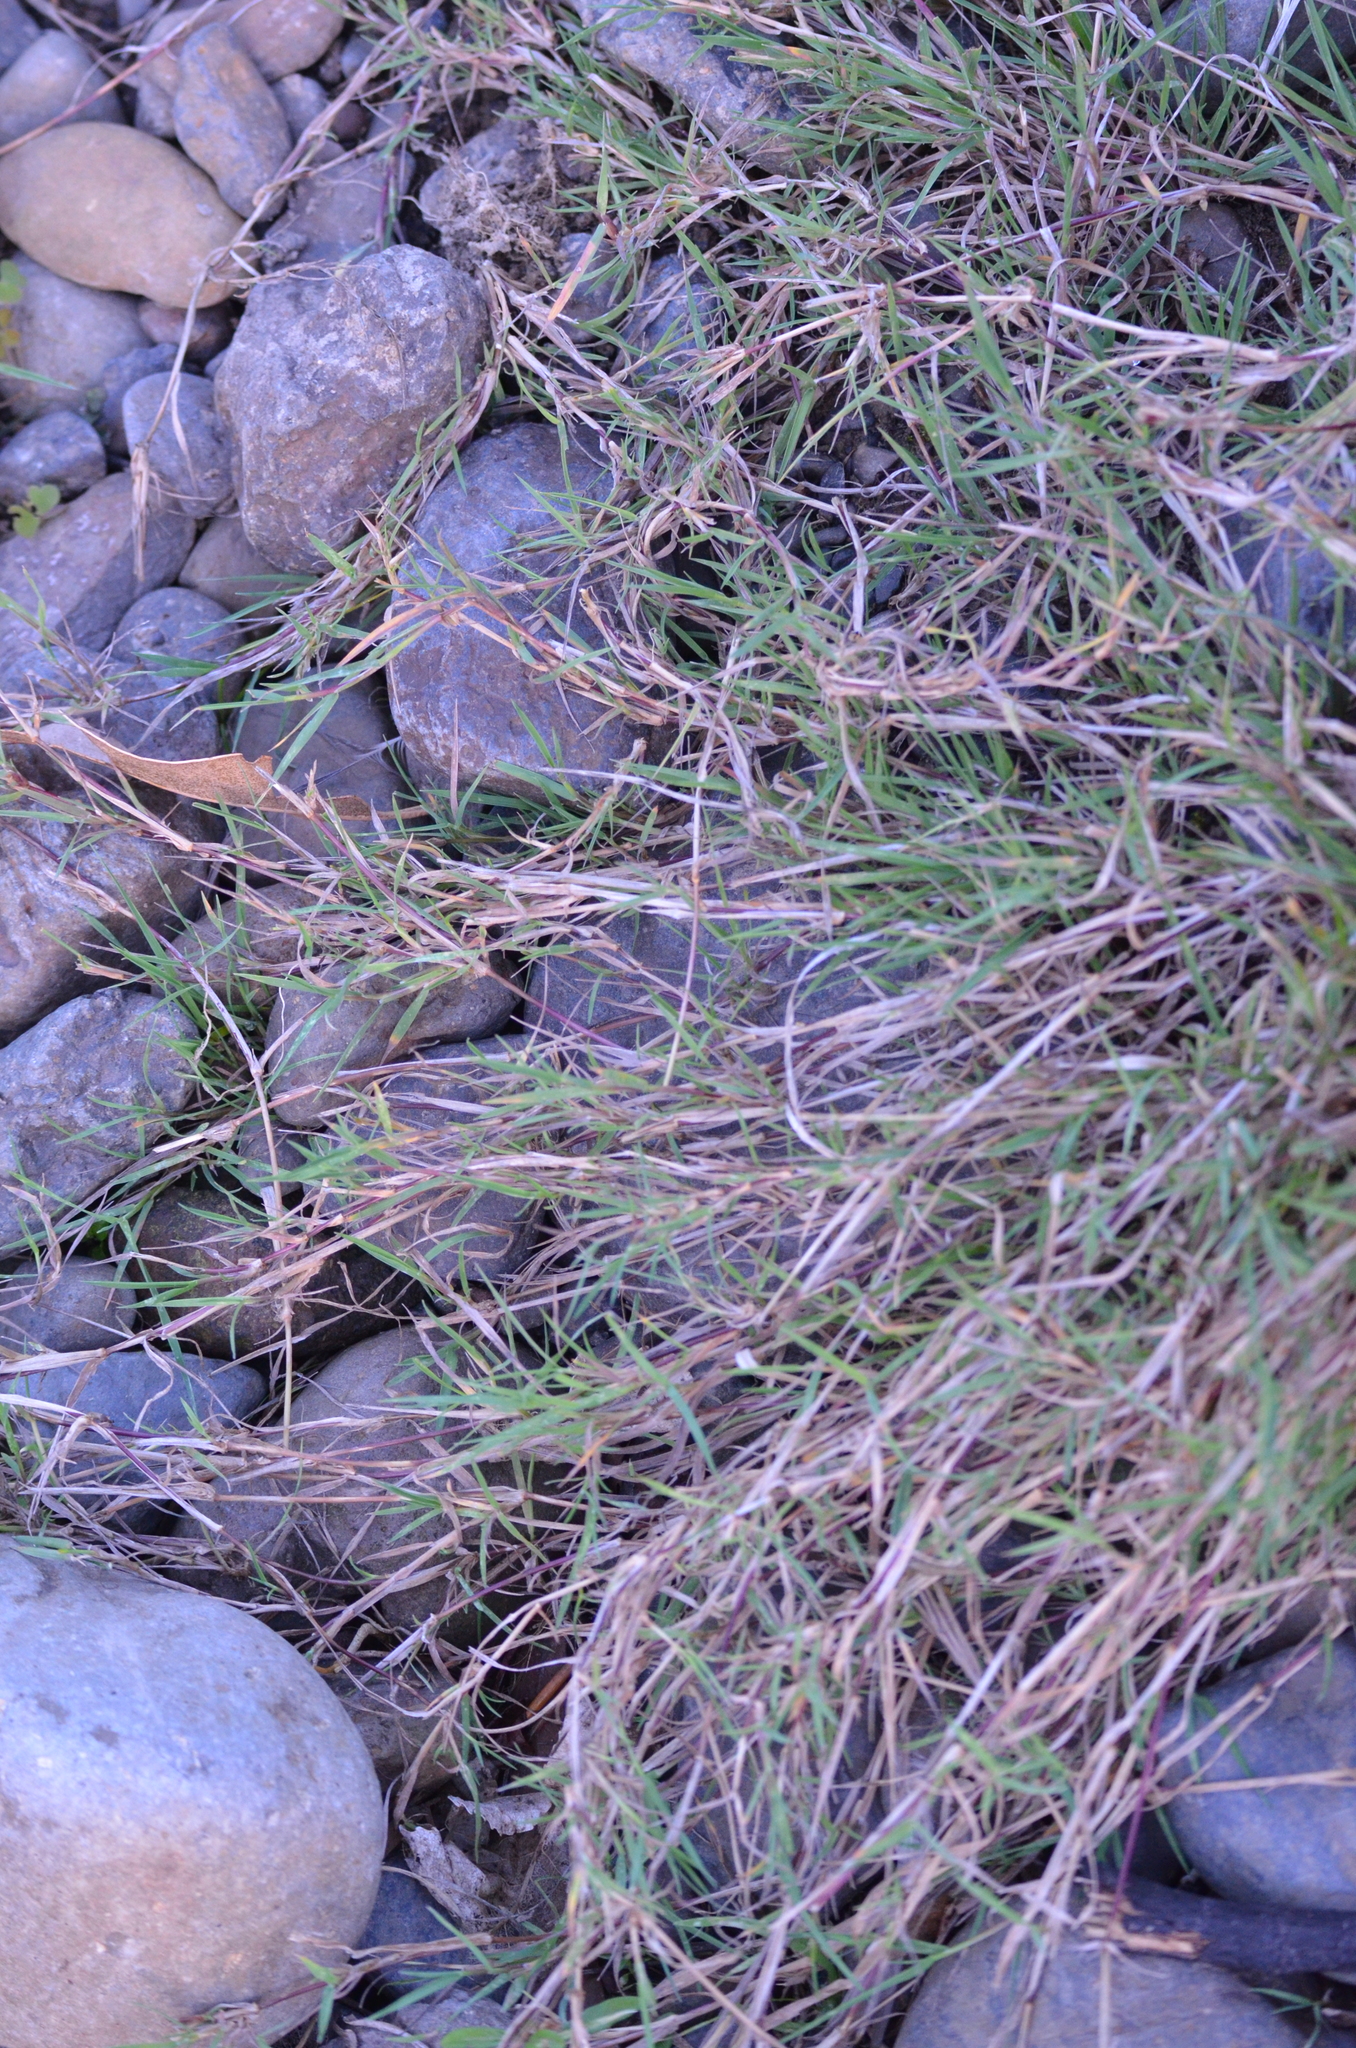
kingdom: Plantae
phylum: Tracheophyta
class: Liliopsida
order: Poales
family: Poaceae
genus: Cynodon
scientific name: Cynodon dactylon
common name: Bermuda grass
